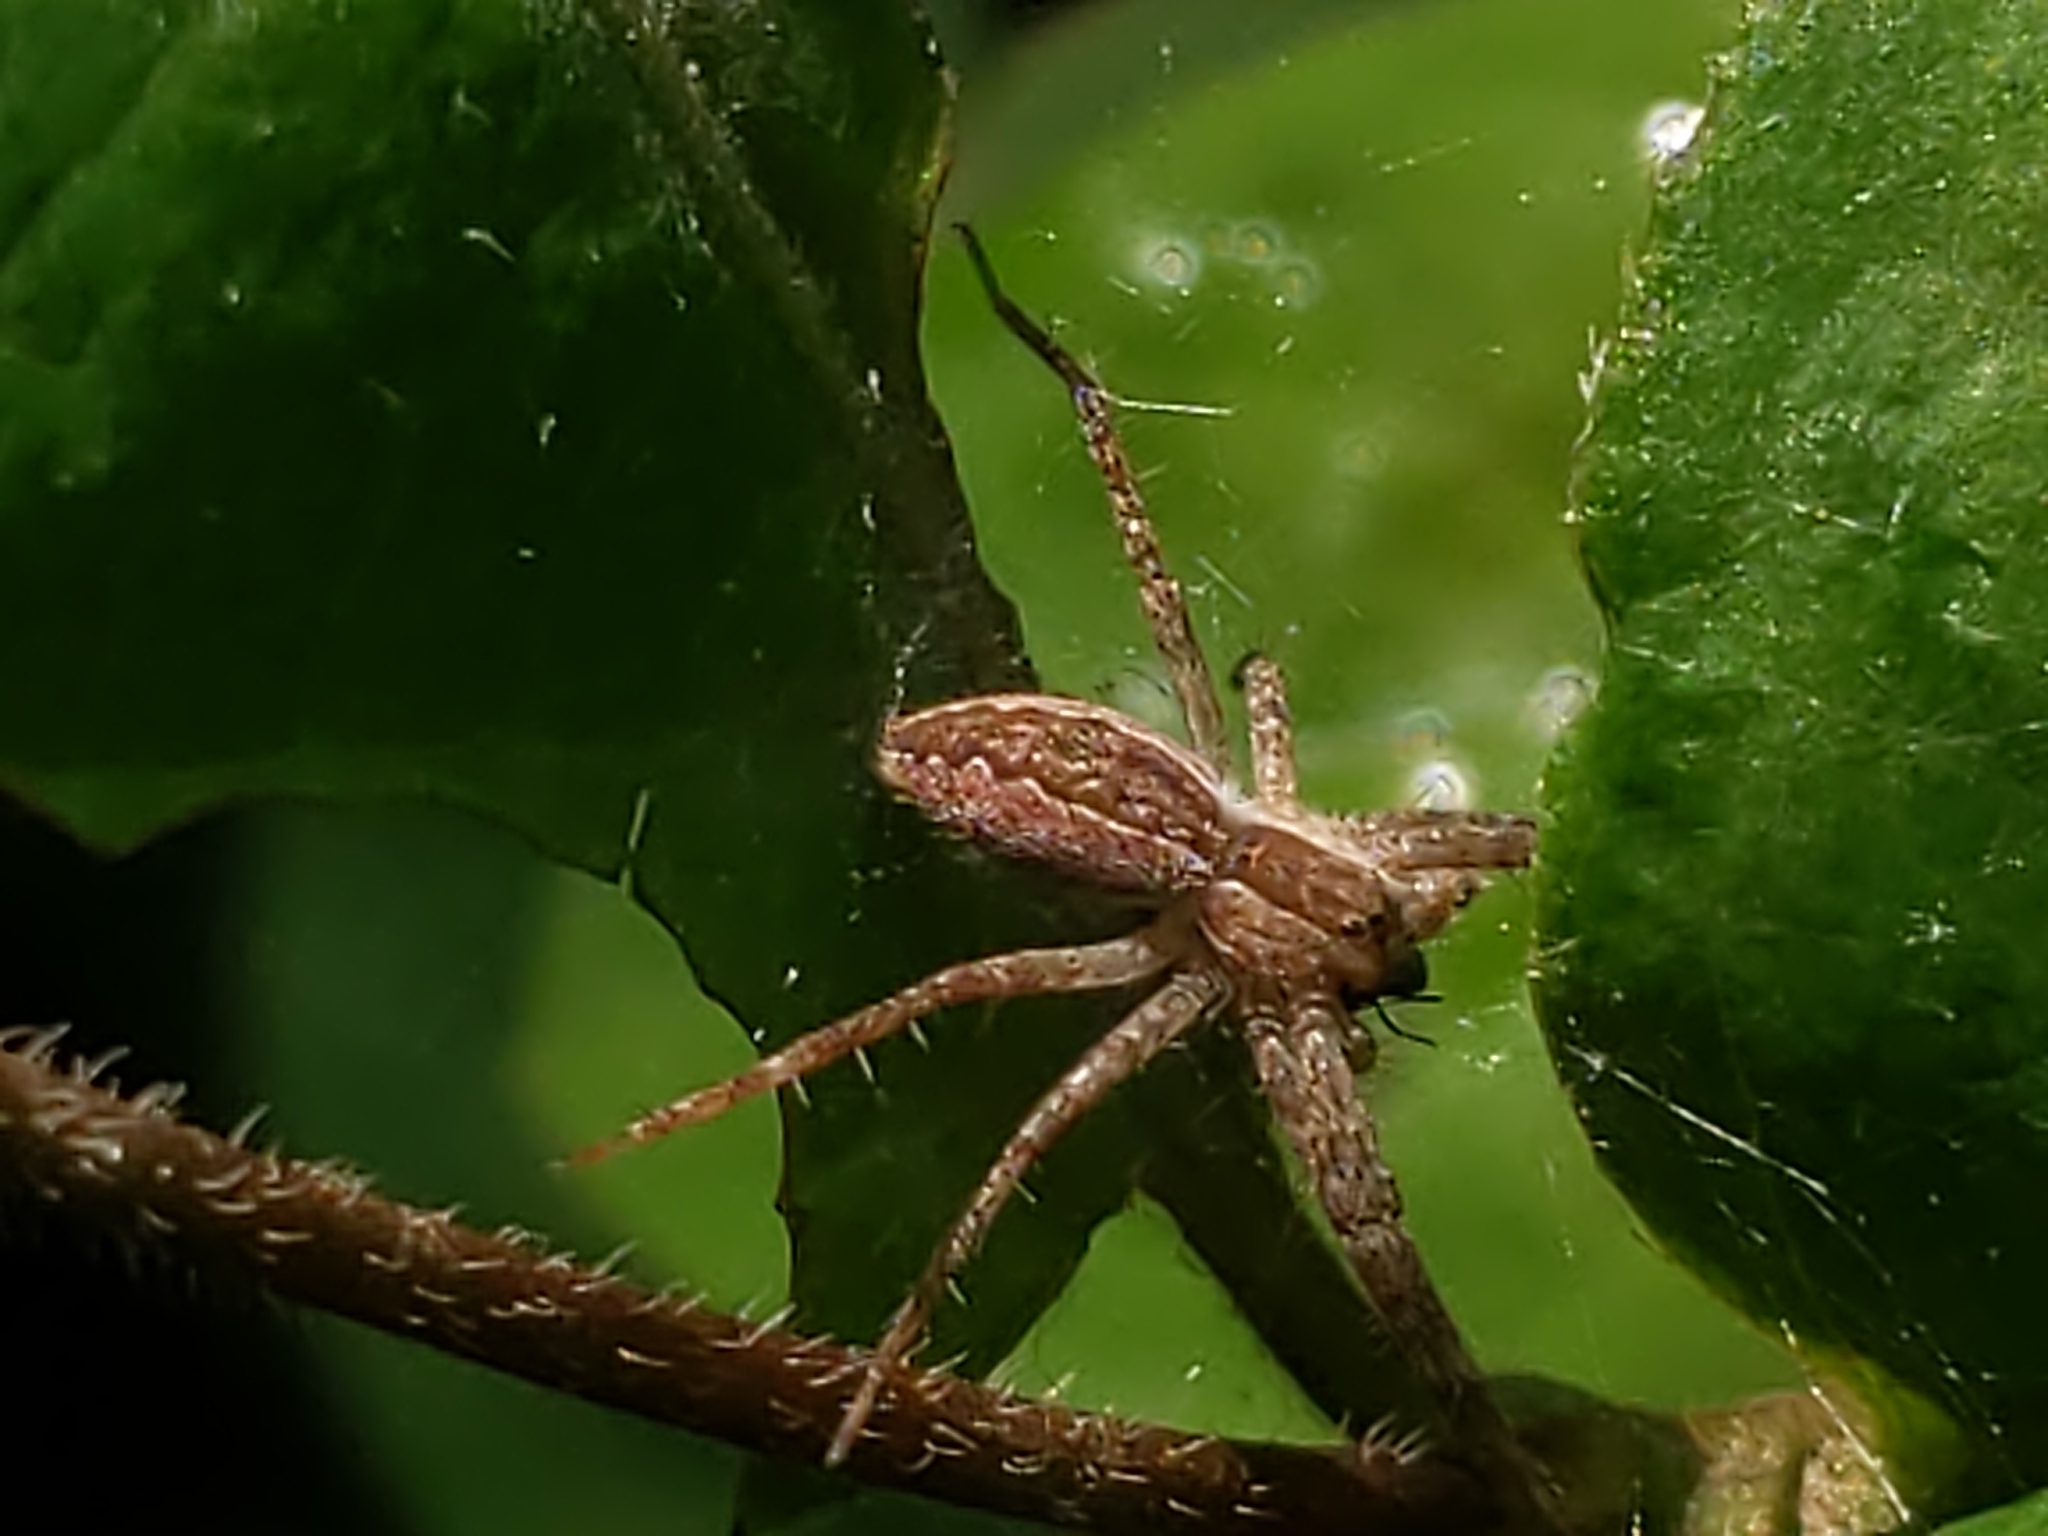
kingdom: Animalia
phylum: Arthropoda
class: Arachnida
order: Araneae
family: Pisauridae
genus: Pisaurina
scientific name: Pisaurina mira
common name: American nursery web spider
